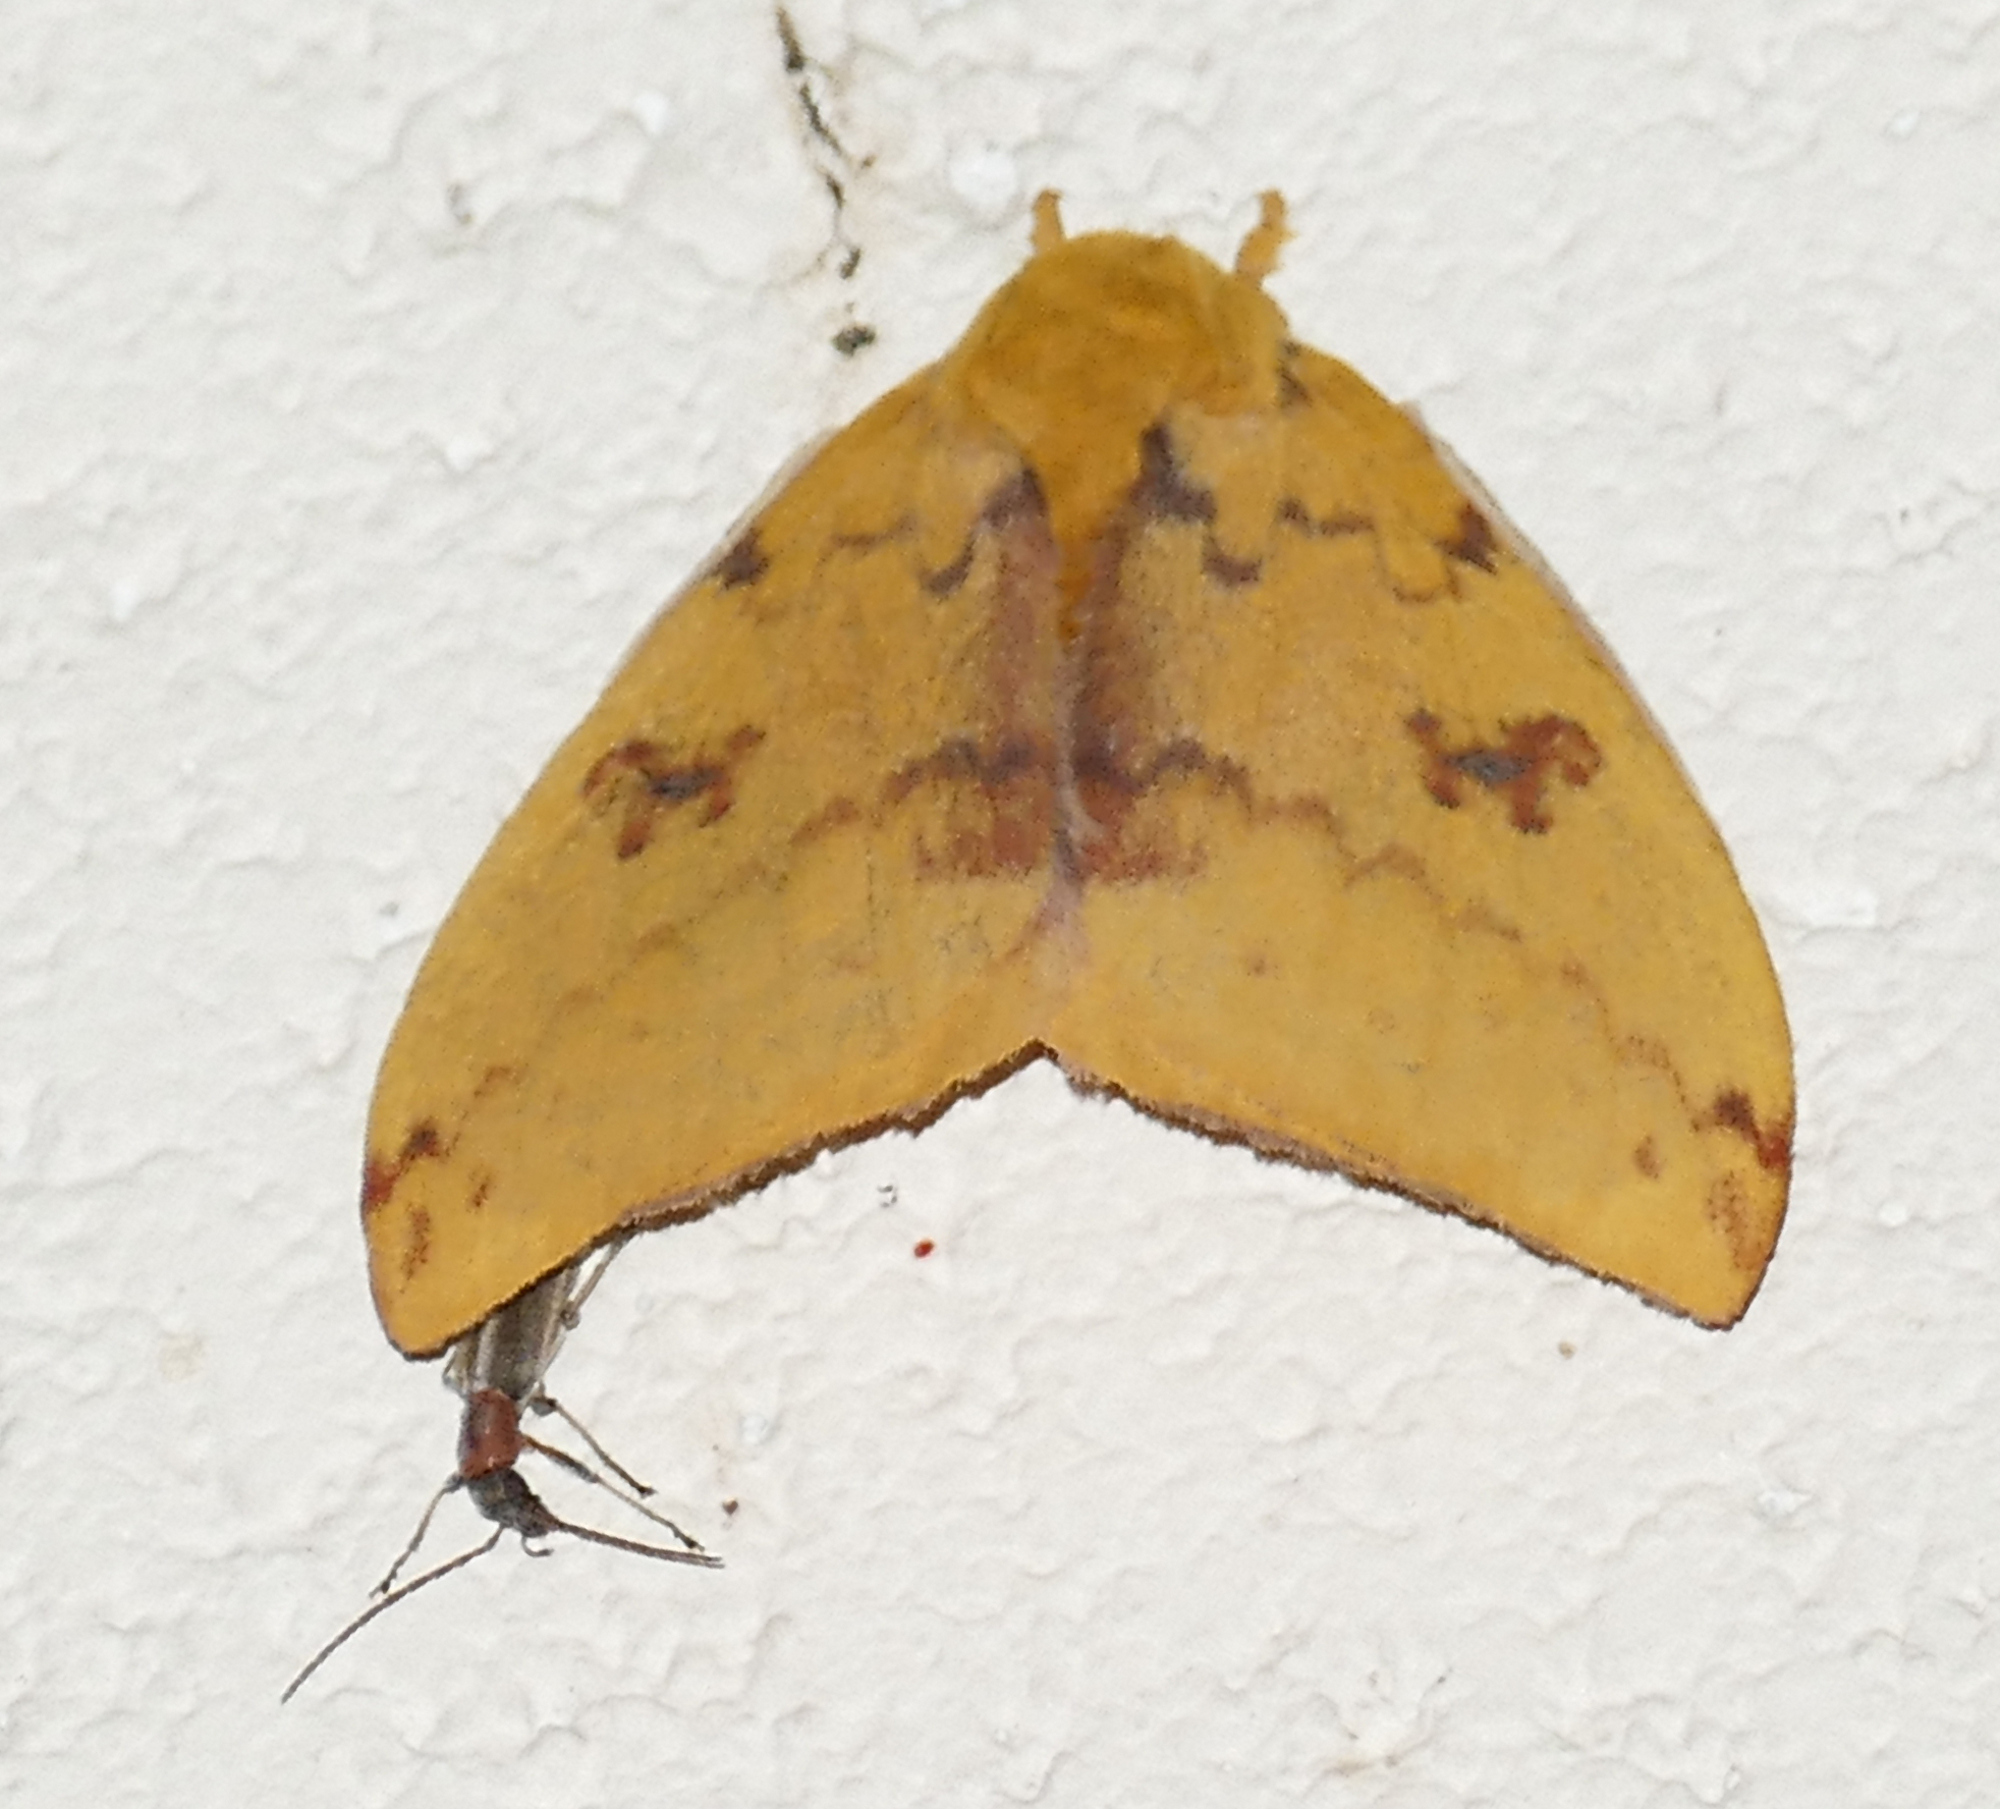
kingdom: Animalia
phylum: Arthropoda
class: Insecta
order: Lepidoptera
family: Saturniidae
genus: Automeris
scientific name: Automeris io
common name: Io moth
